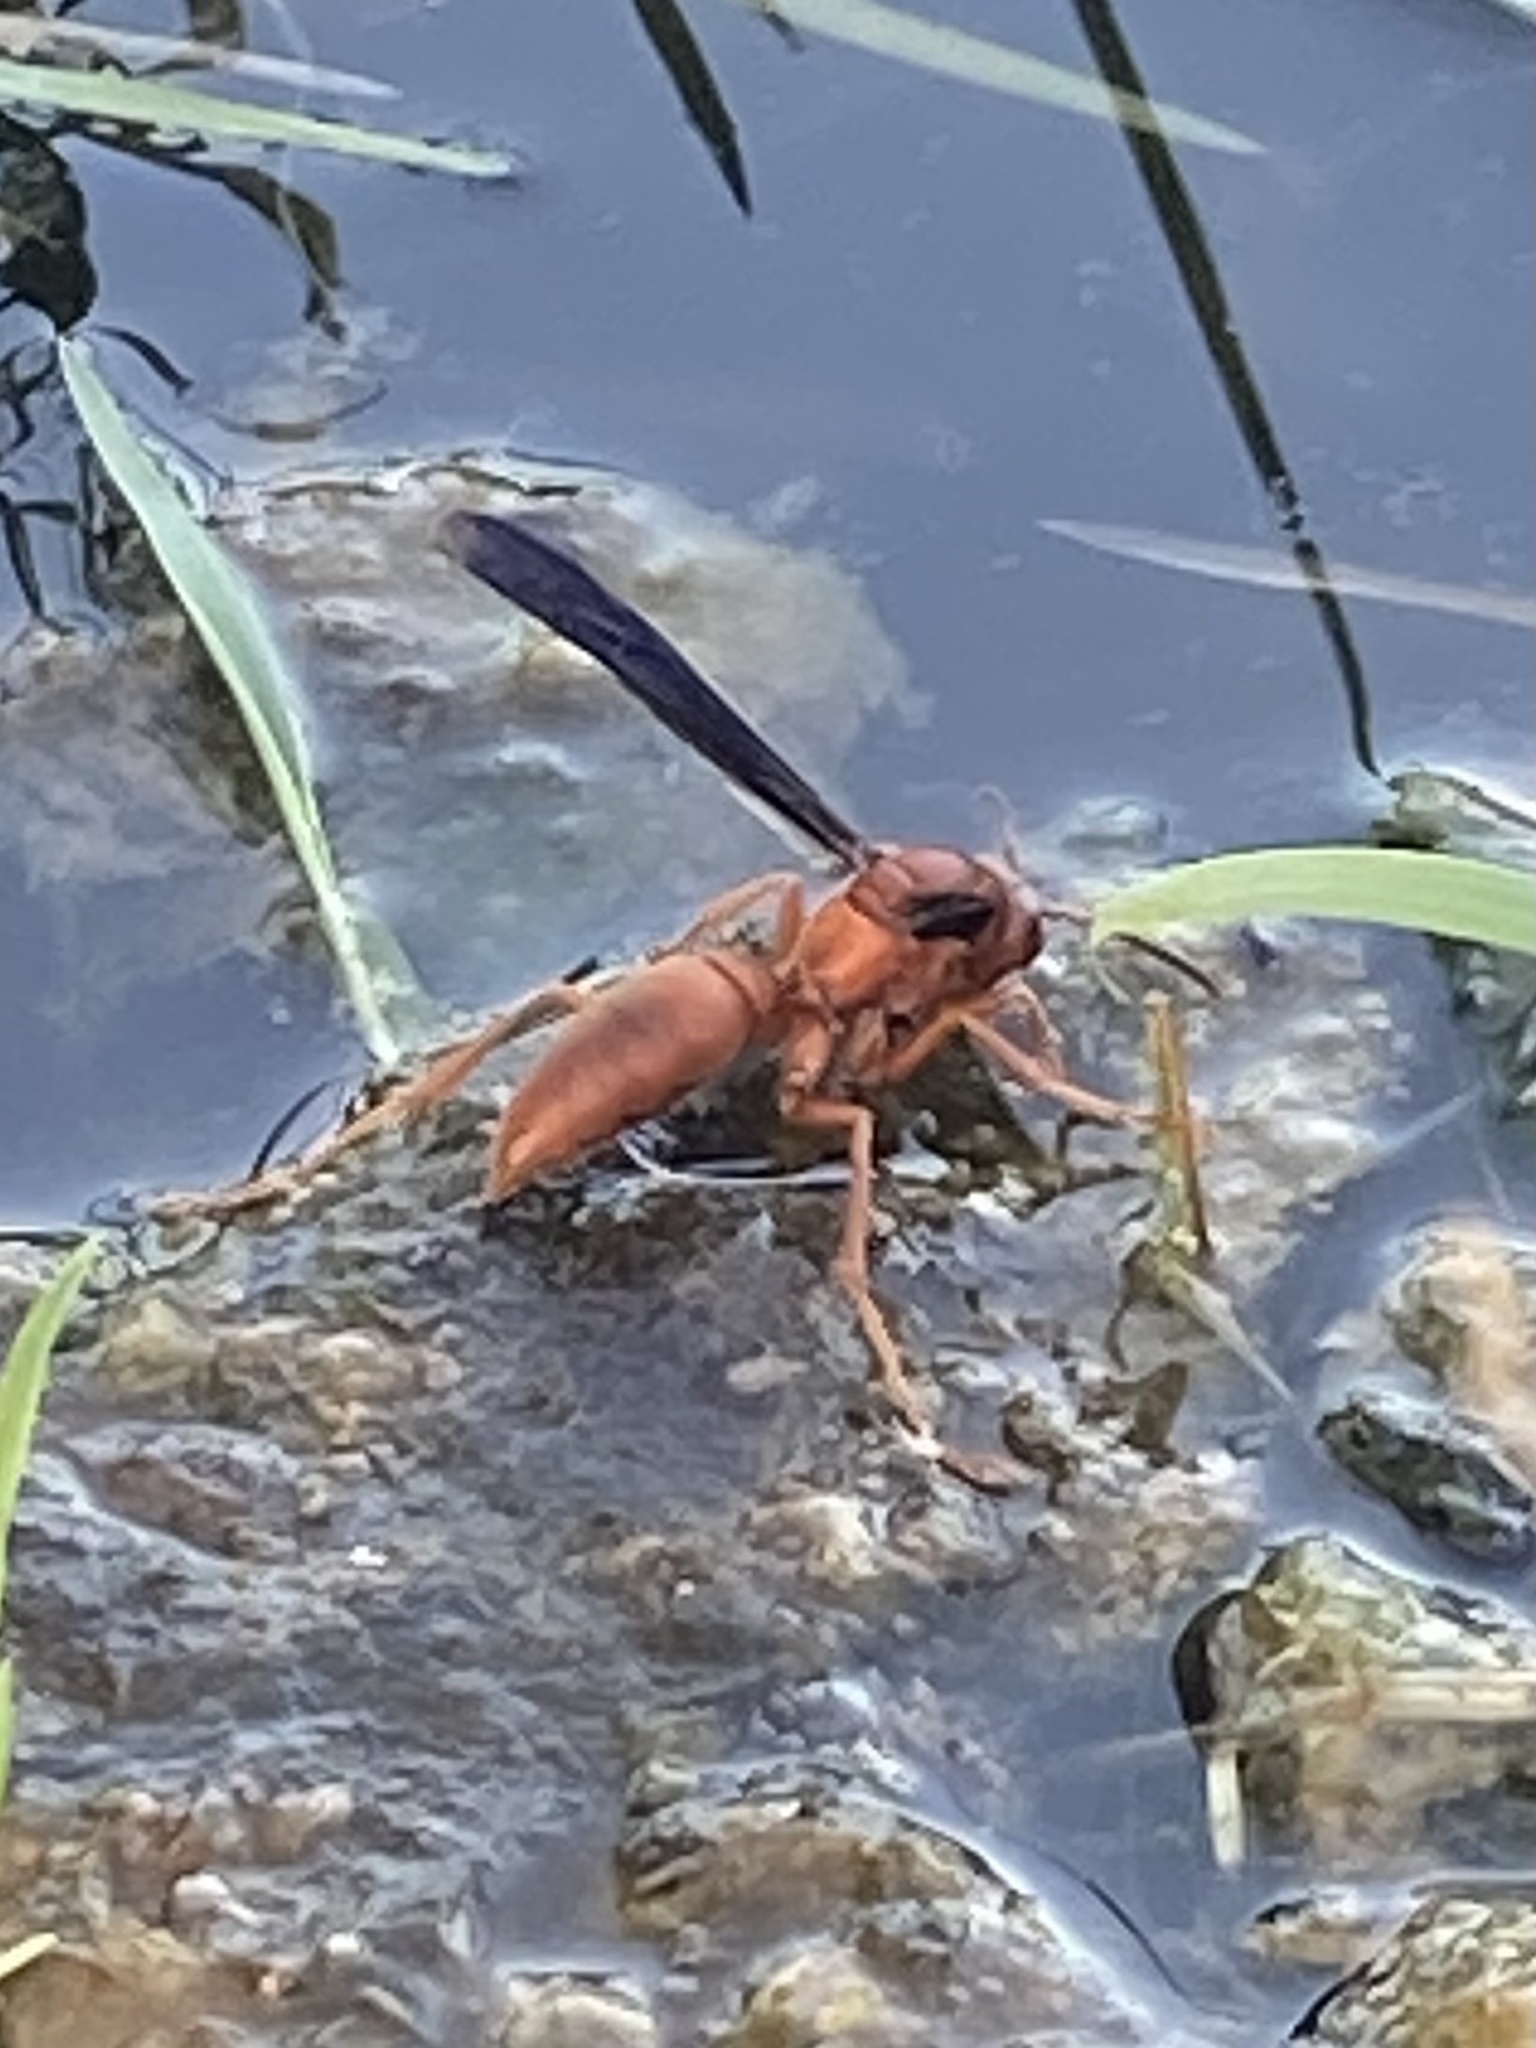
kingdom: Animalia
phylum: Arthropoda
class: Insecta
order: Hymenoptera
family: Vespidae
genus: Fuscopolistes
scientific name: Fuscopolistes
